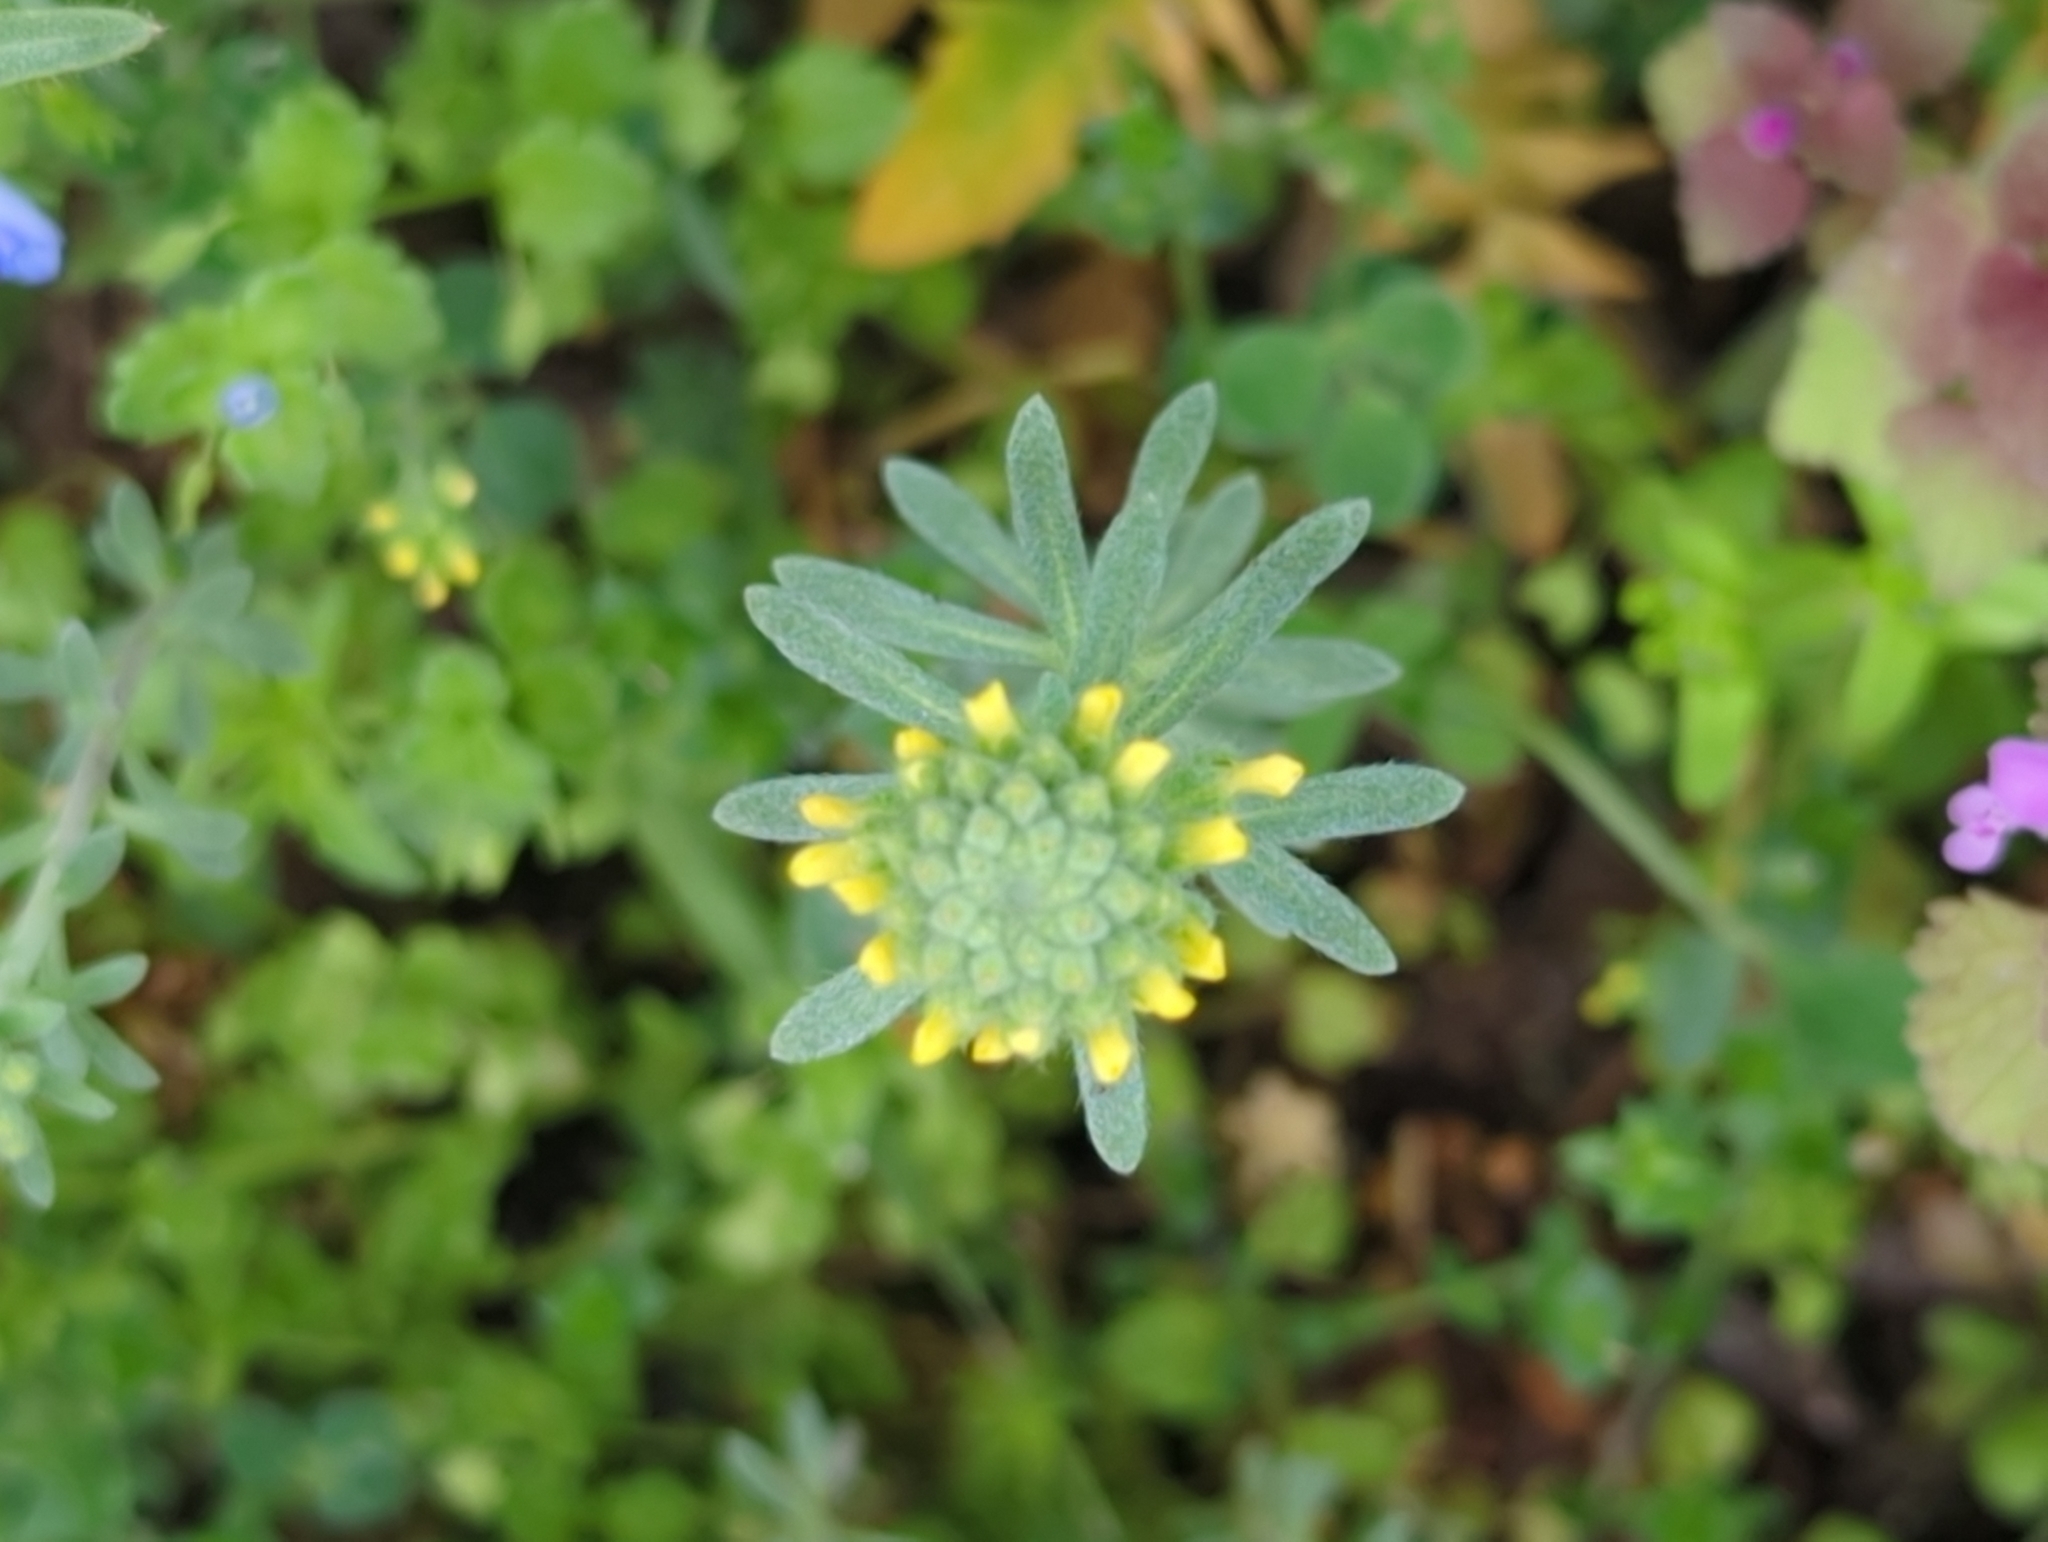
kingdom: Plantae
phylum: Tracheophyta
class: Magnoliopsida
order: Brassicales
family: Brassicaceae
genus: Alyssum
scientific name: Alyssum alyssoides
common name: Small alison
